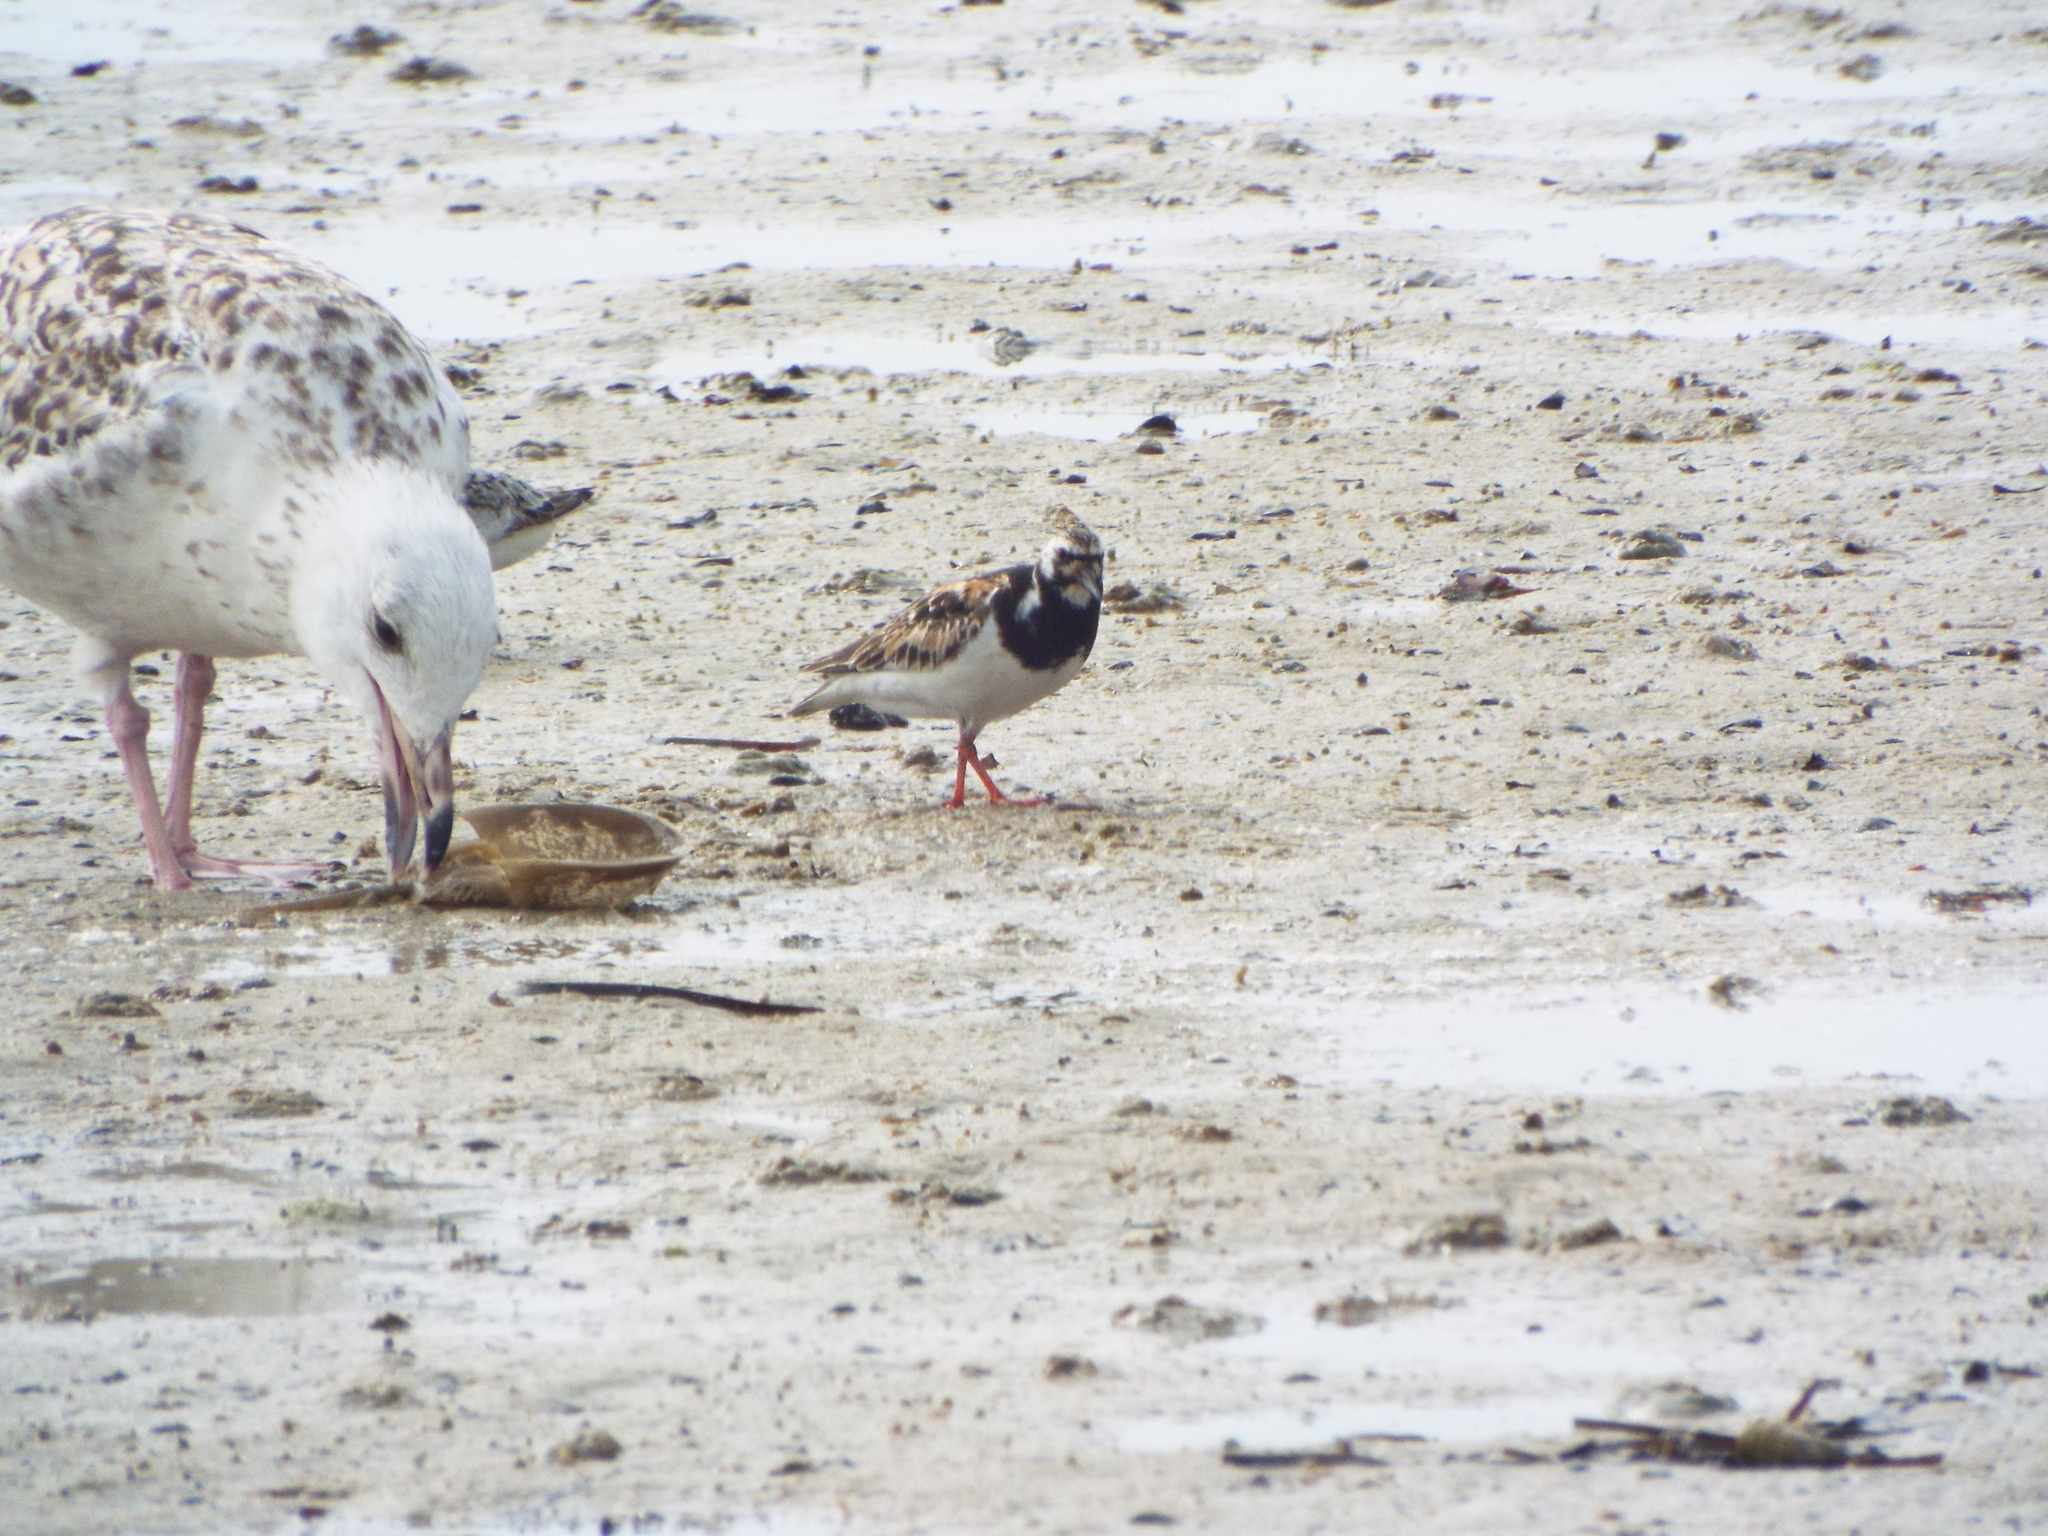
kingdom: Animalia
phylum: Chordata
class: Aves
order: Charadriiformes
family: Scolopacidae
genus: Arenaria
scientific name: Arenaria interpres
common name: Ruddy turnstone
